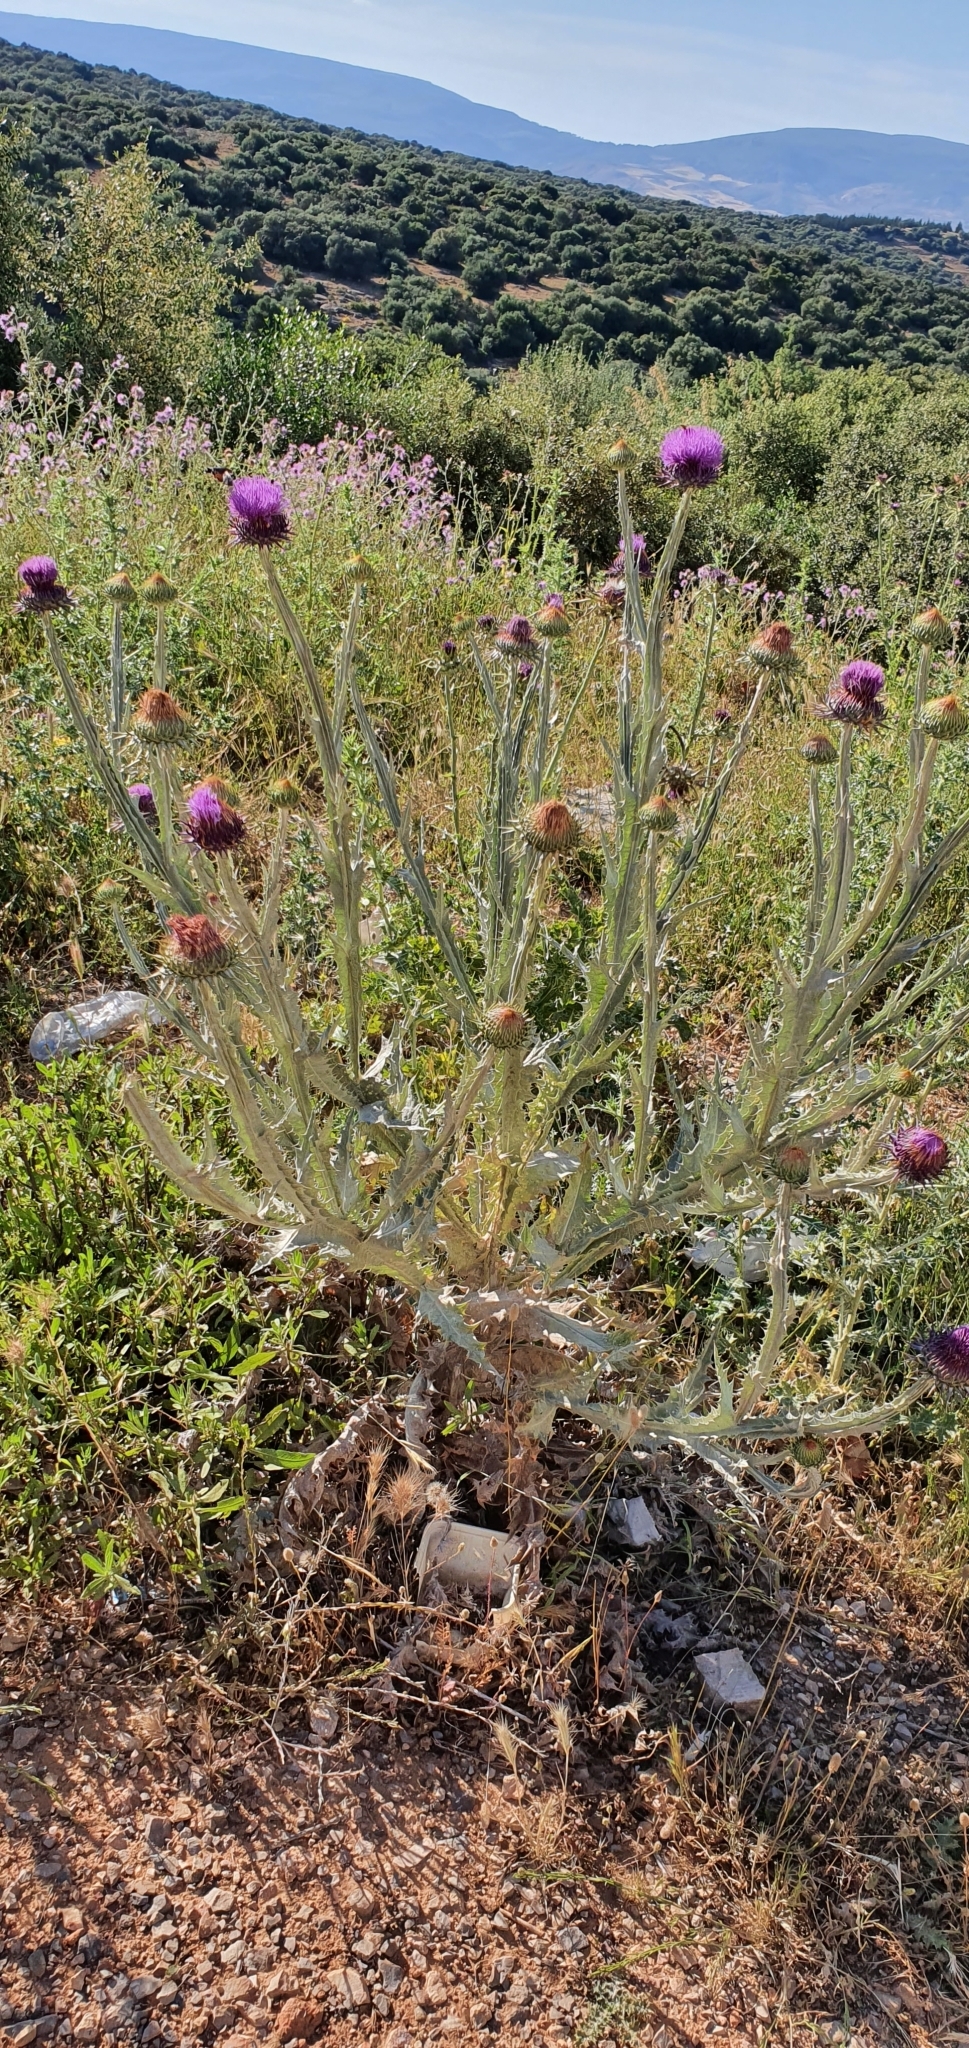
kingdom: Plantae
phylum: Tracheophyta
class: Magnoliopsida
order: Asterales
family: Asteraceae
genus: Onopordum
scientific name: Onopordum macracanthum
